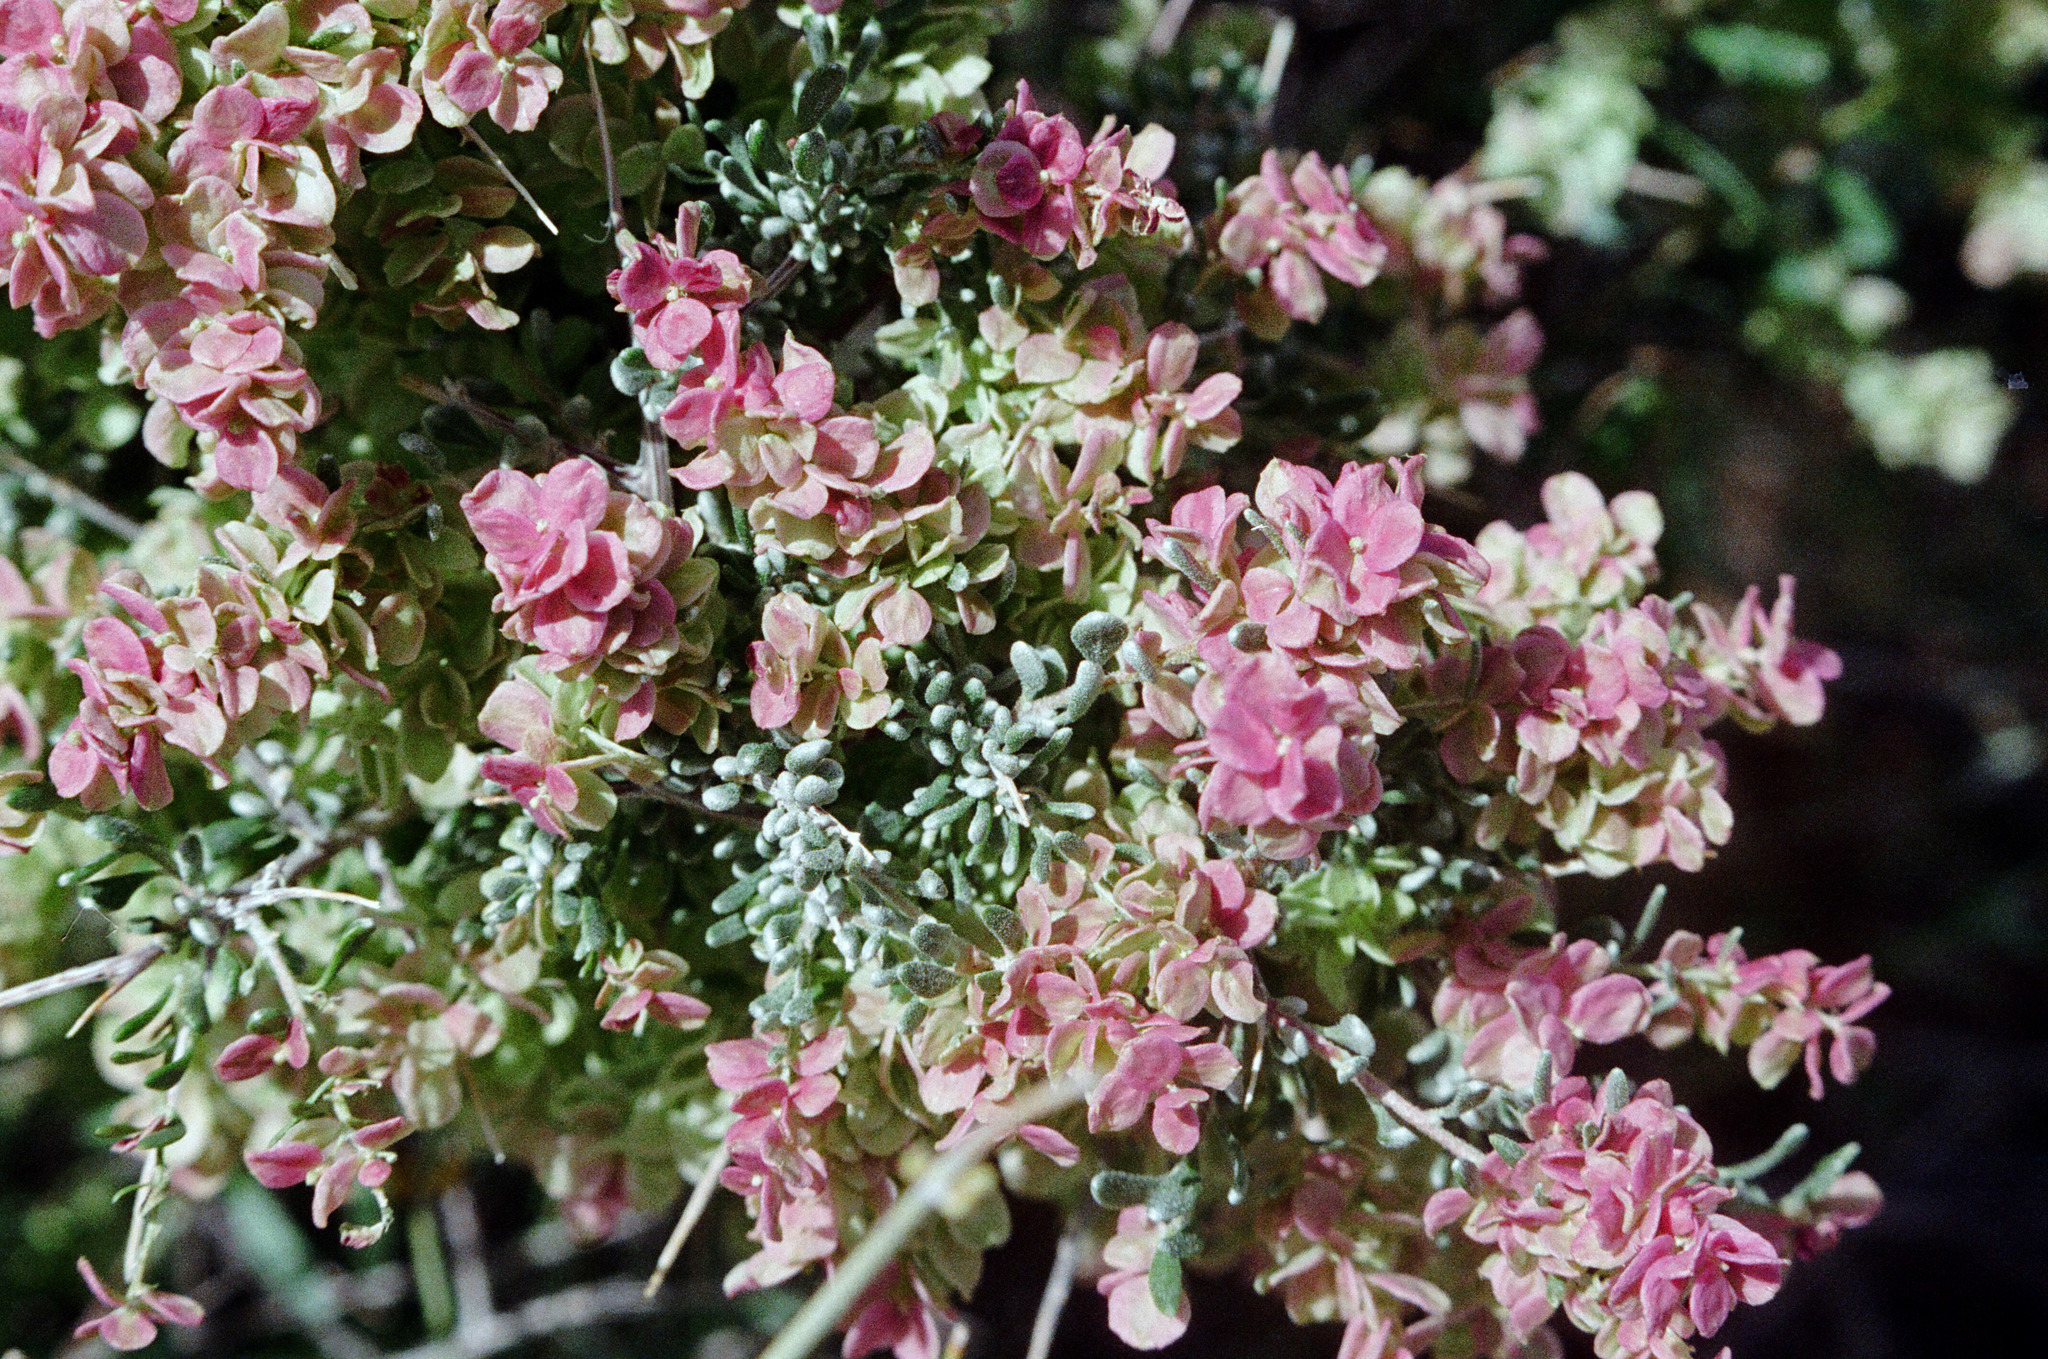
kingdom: Plantae
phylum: Tracheophyta
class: Magnoliopsida
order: Caryophyllales
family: Amaranthaceae
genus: Grayia
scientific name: Grayia spinosa
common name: Spiny hopsage
